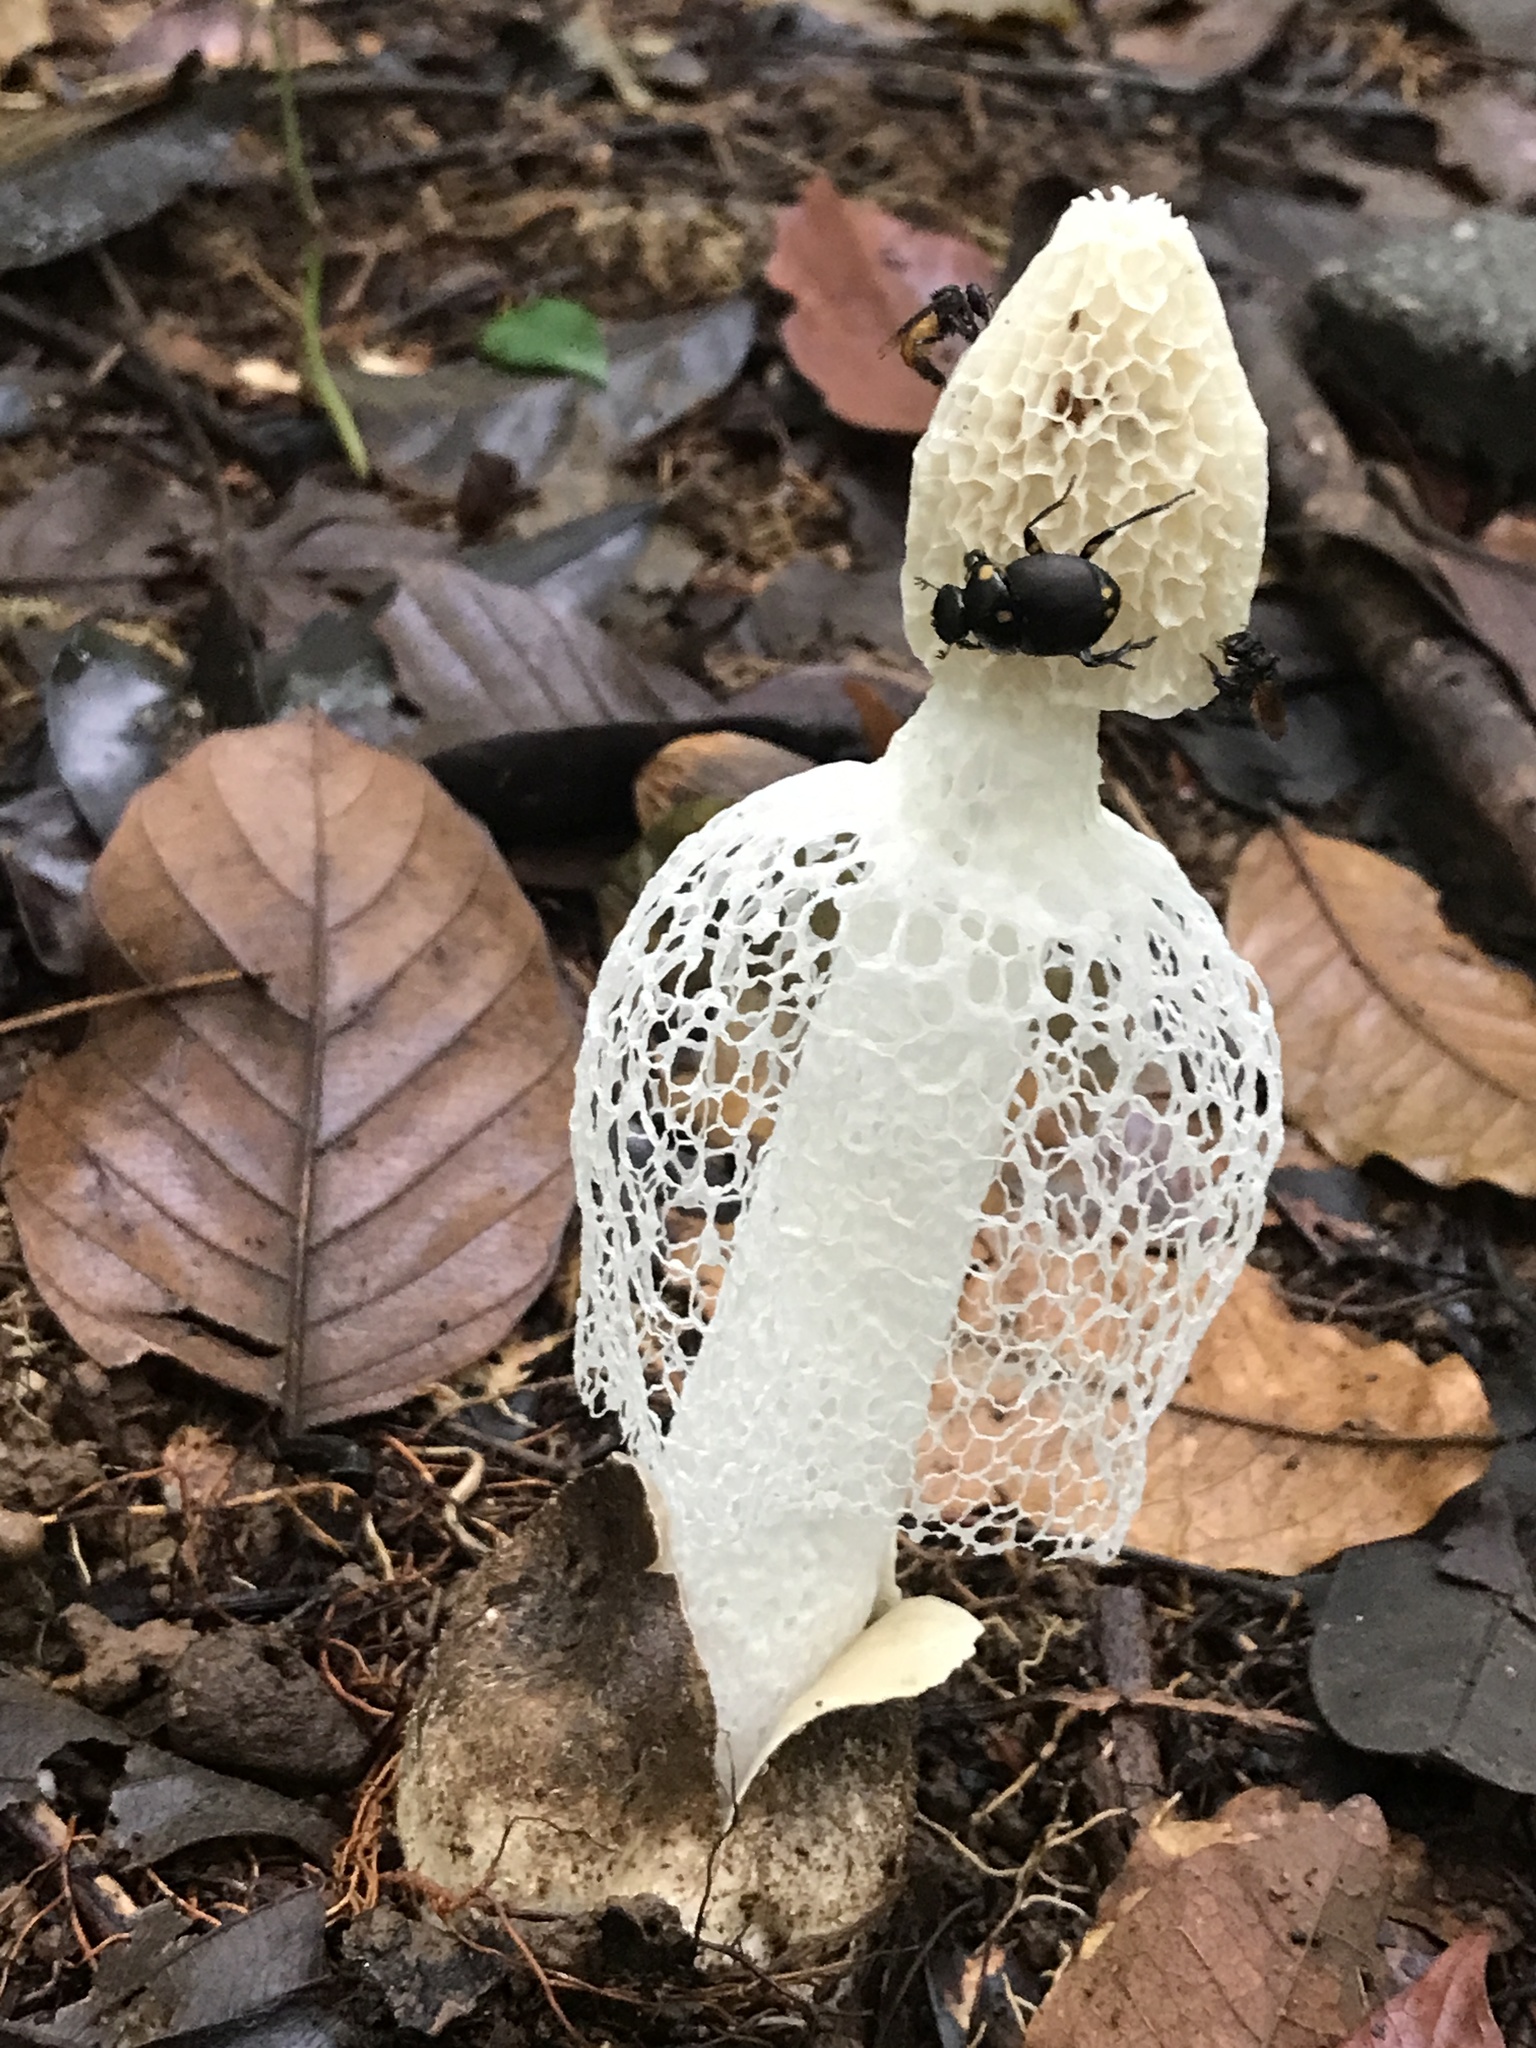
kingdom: Fungi
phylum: Basidiomycota
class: Agaricomycetes
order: Phallales
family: Phallaceae
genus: Phallus
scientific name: Phallus denigricans
